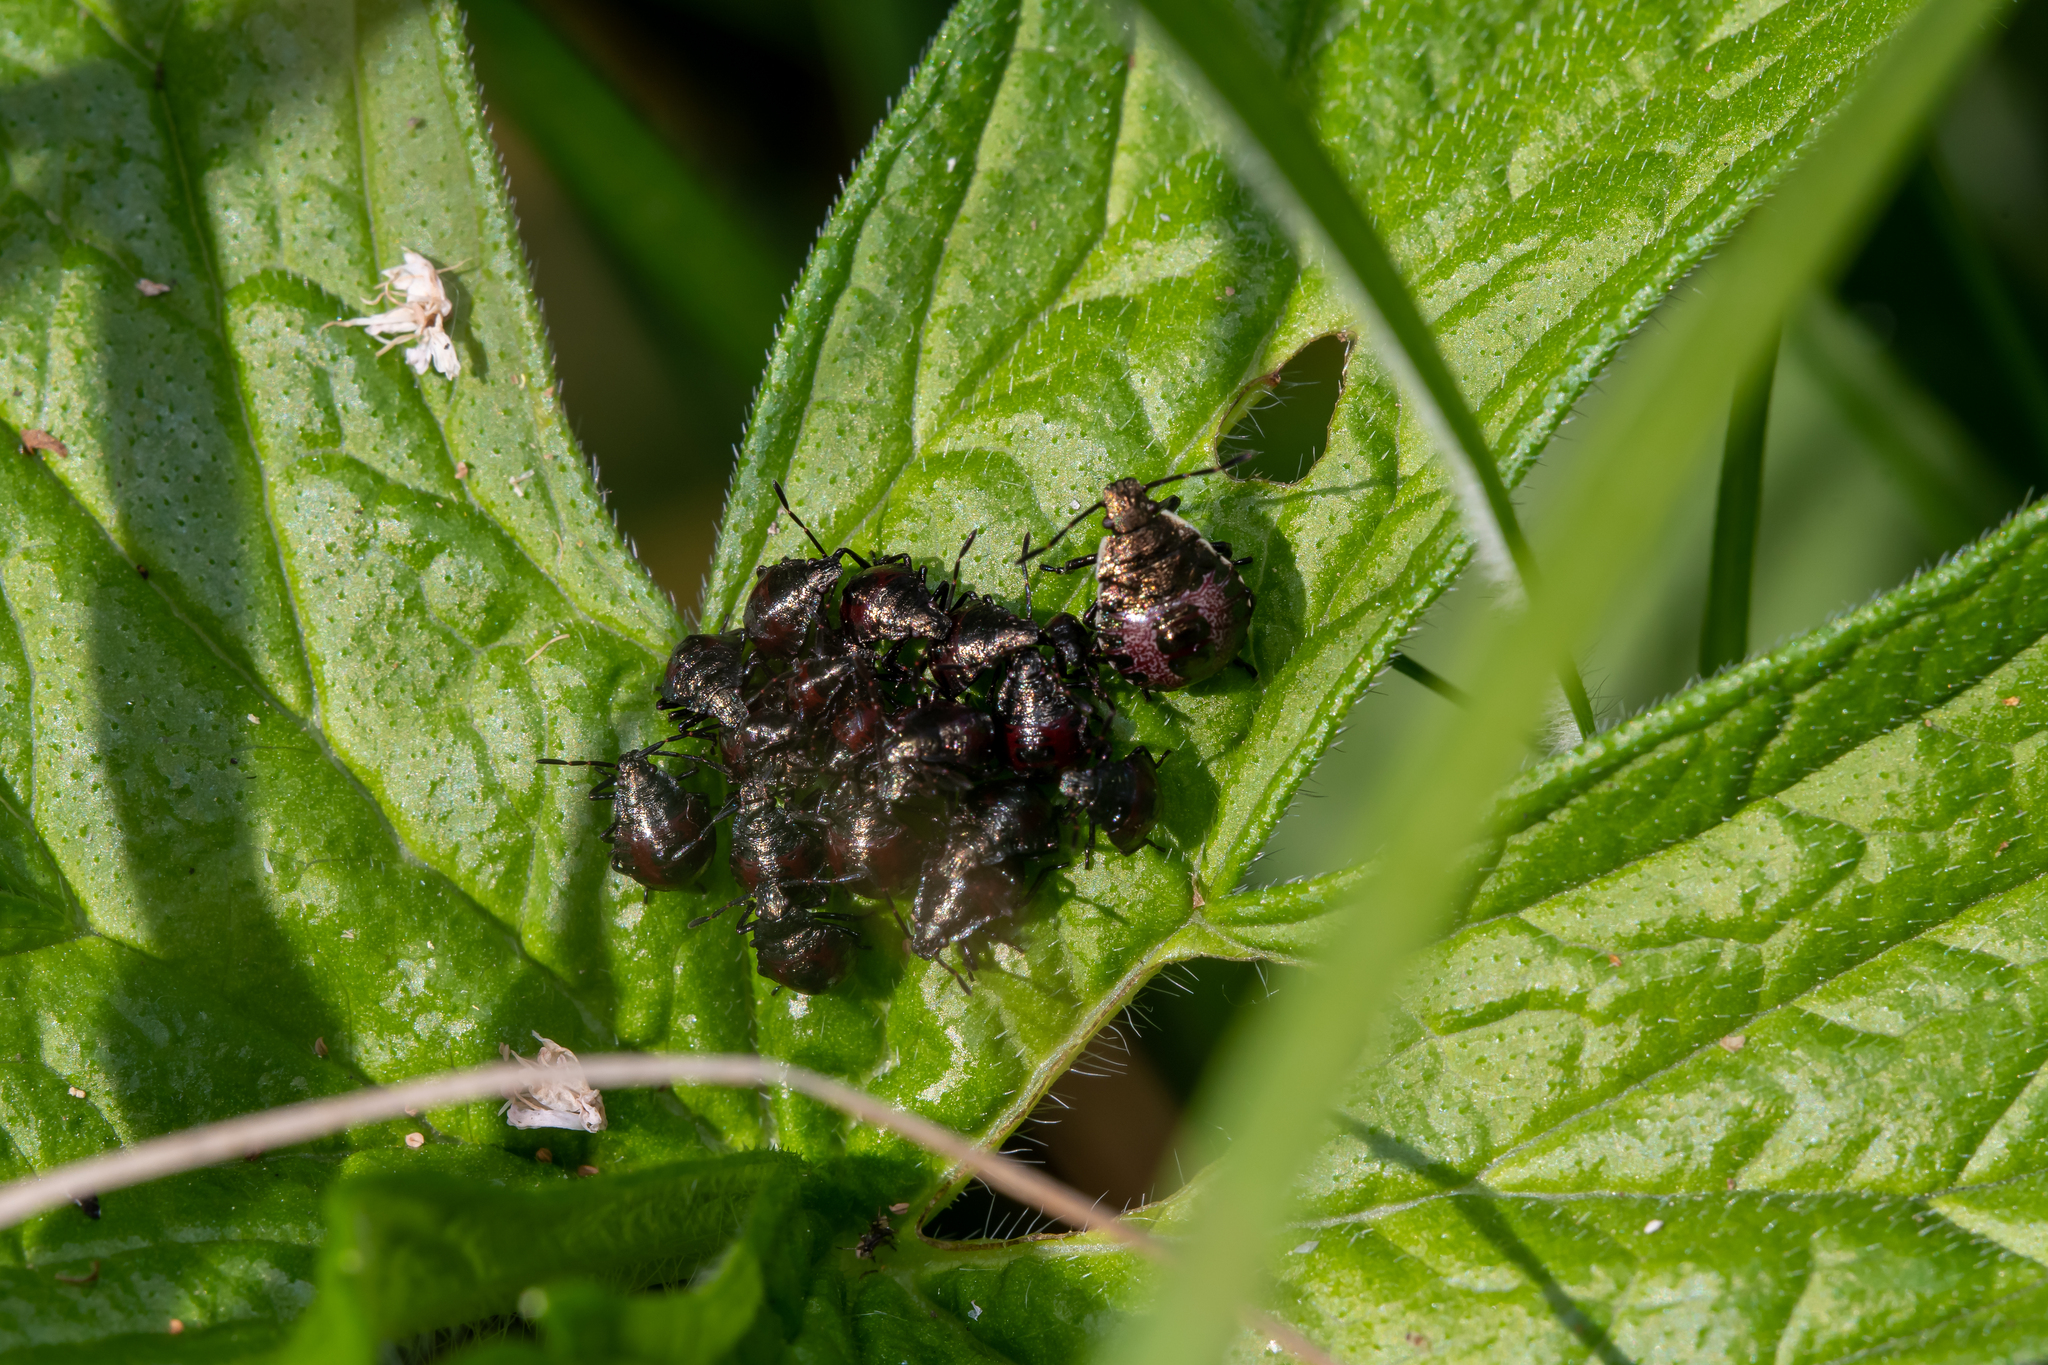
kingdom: Animalia
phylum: Arthropoda
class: Insecta
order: Hemiptera
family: Pentatomidae
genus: Picromerus
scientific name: Picromerus bidens
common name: Spiked shieldbug
